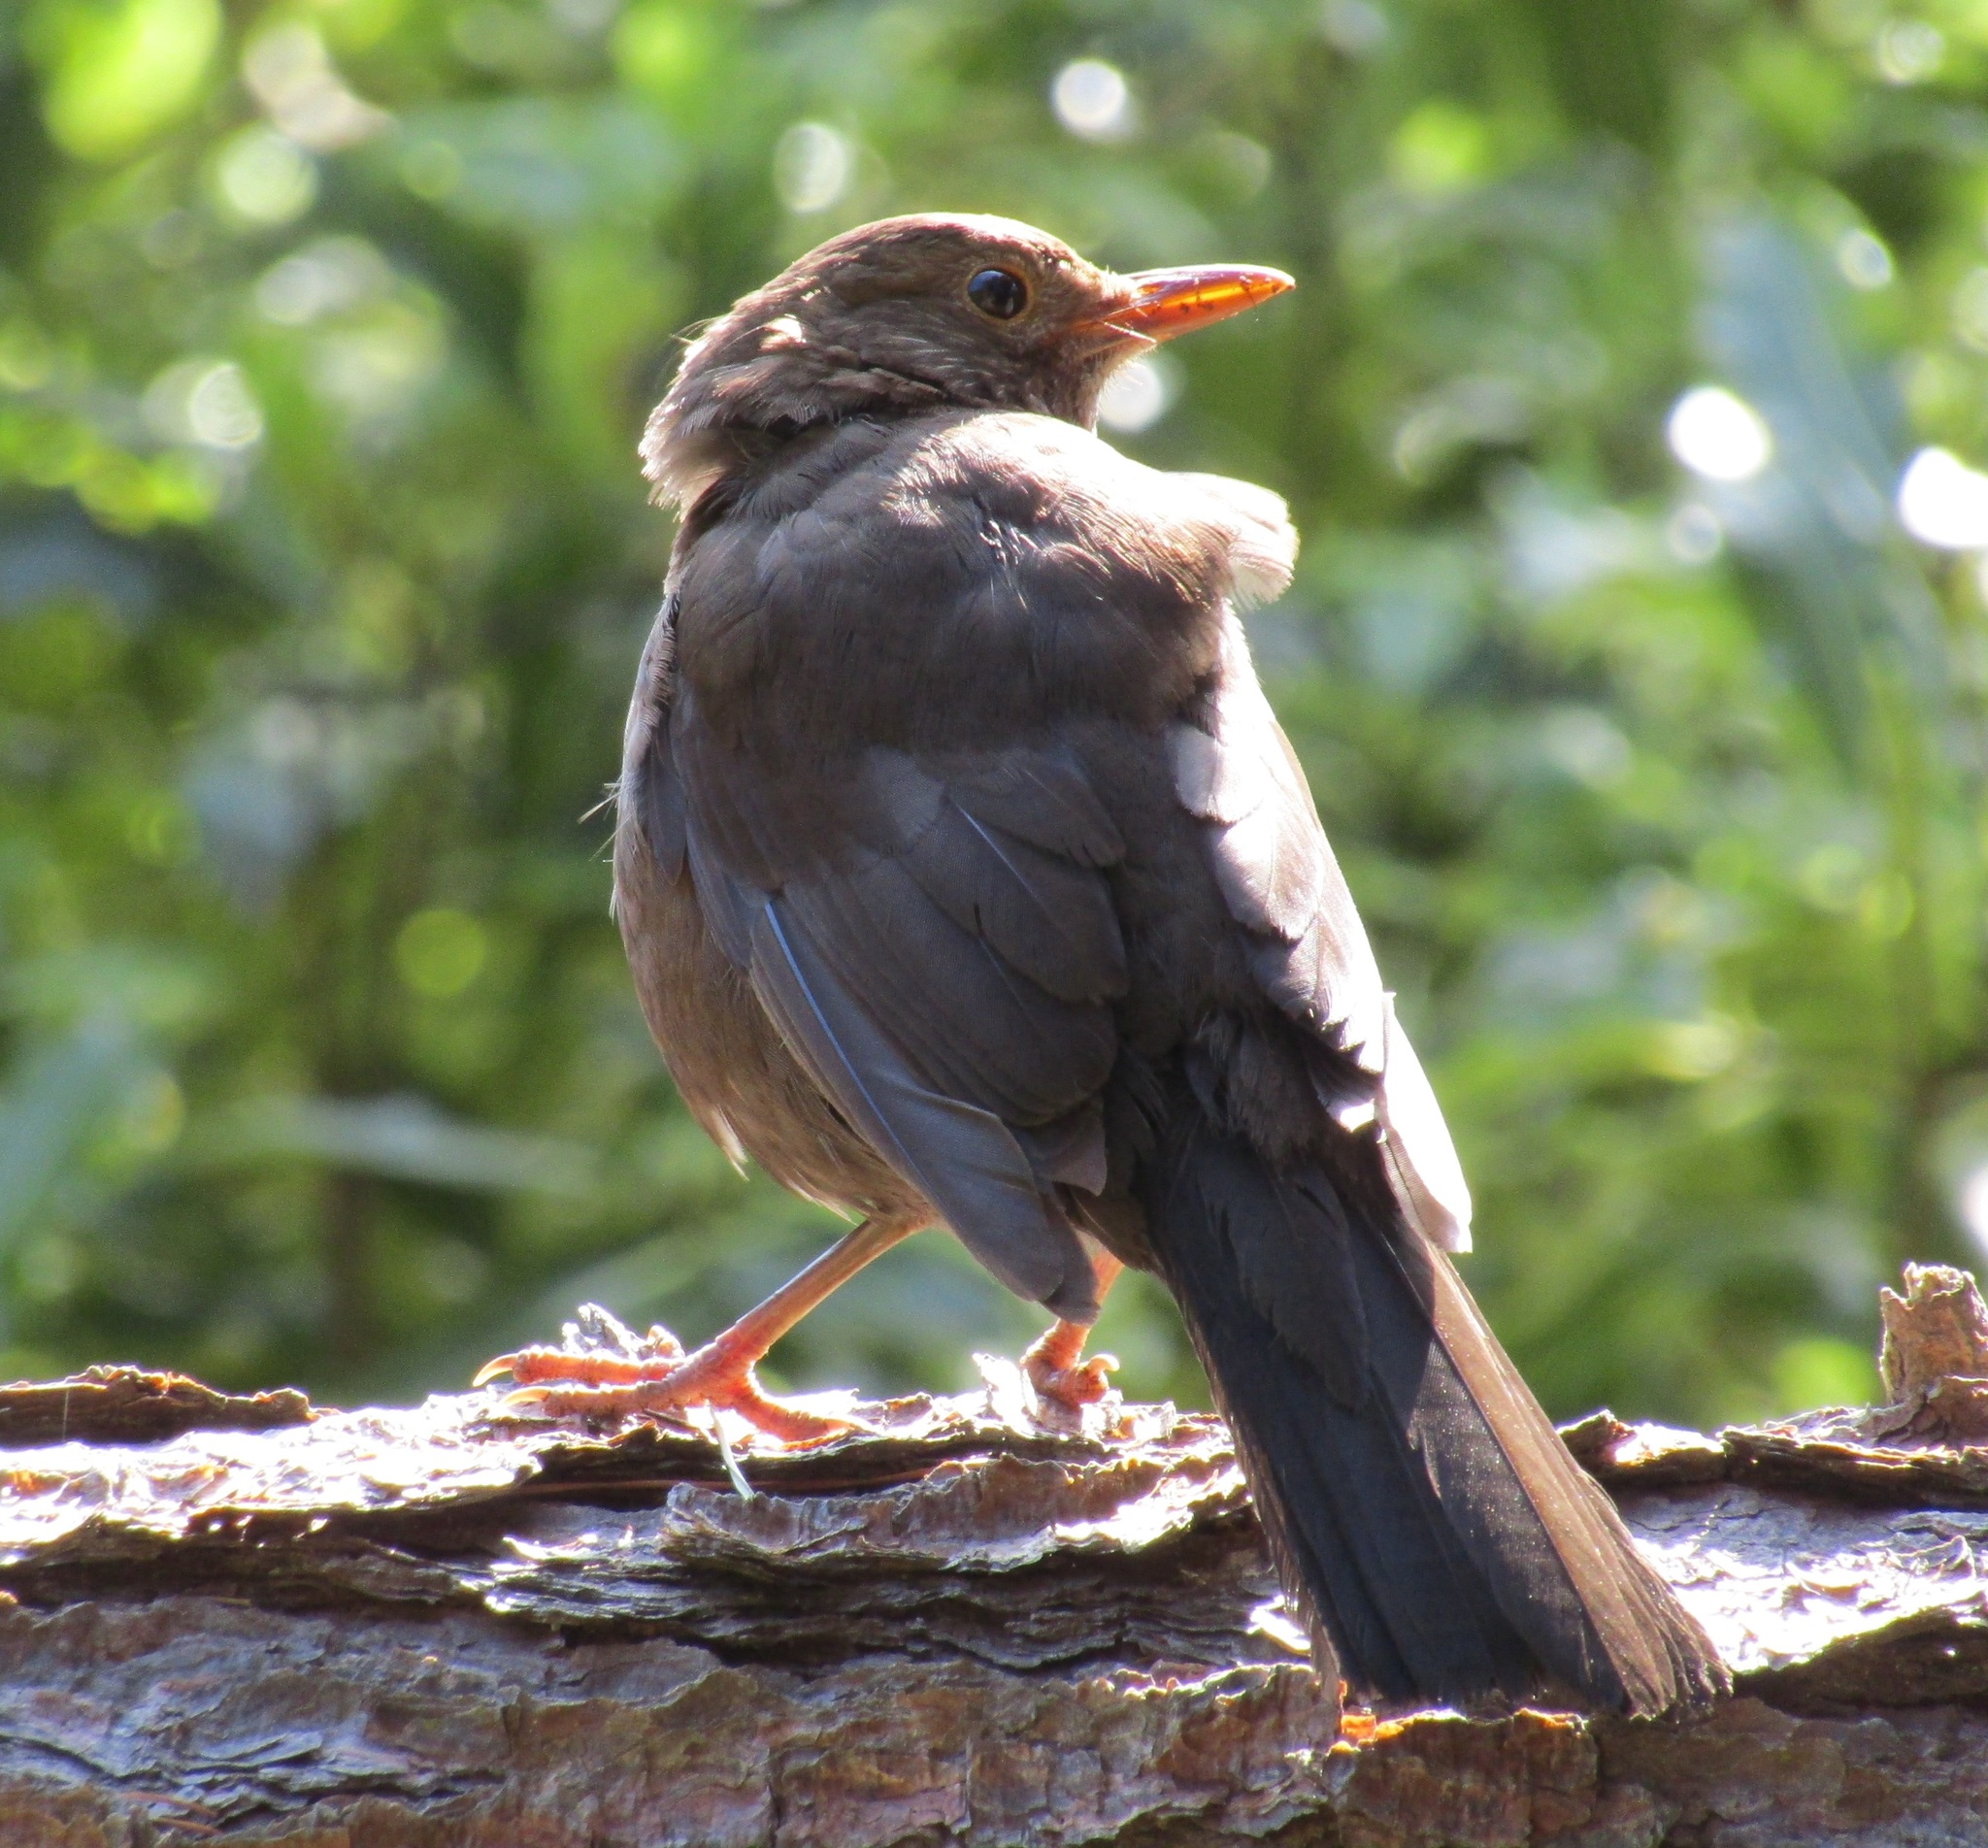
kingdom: Animalia
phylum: Chordata
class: Aves
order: Passeriformes
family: Turdidae
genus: Turdus
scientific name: Turdus merula
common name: Common blackbird
